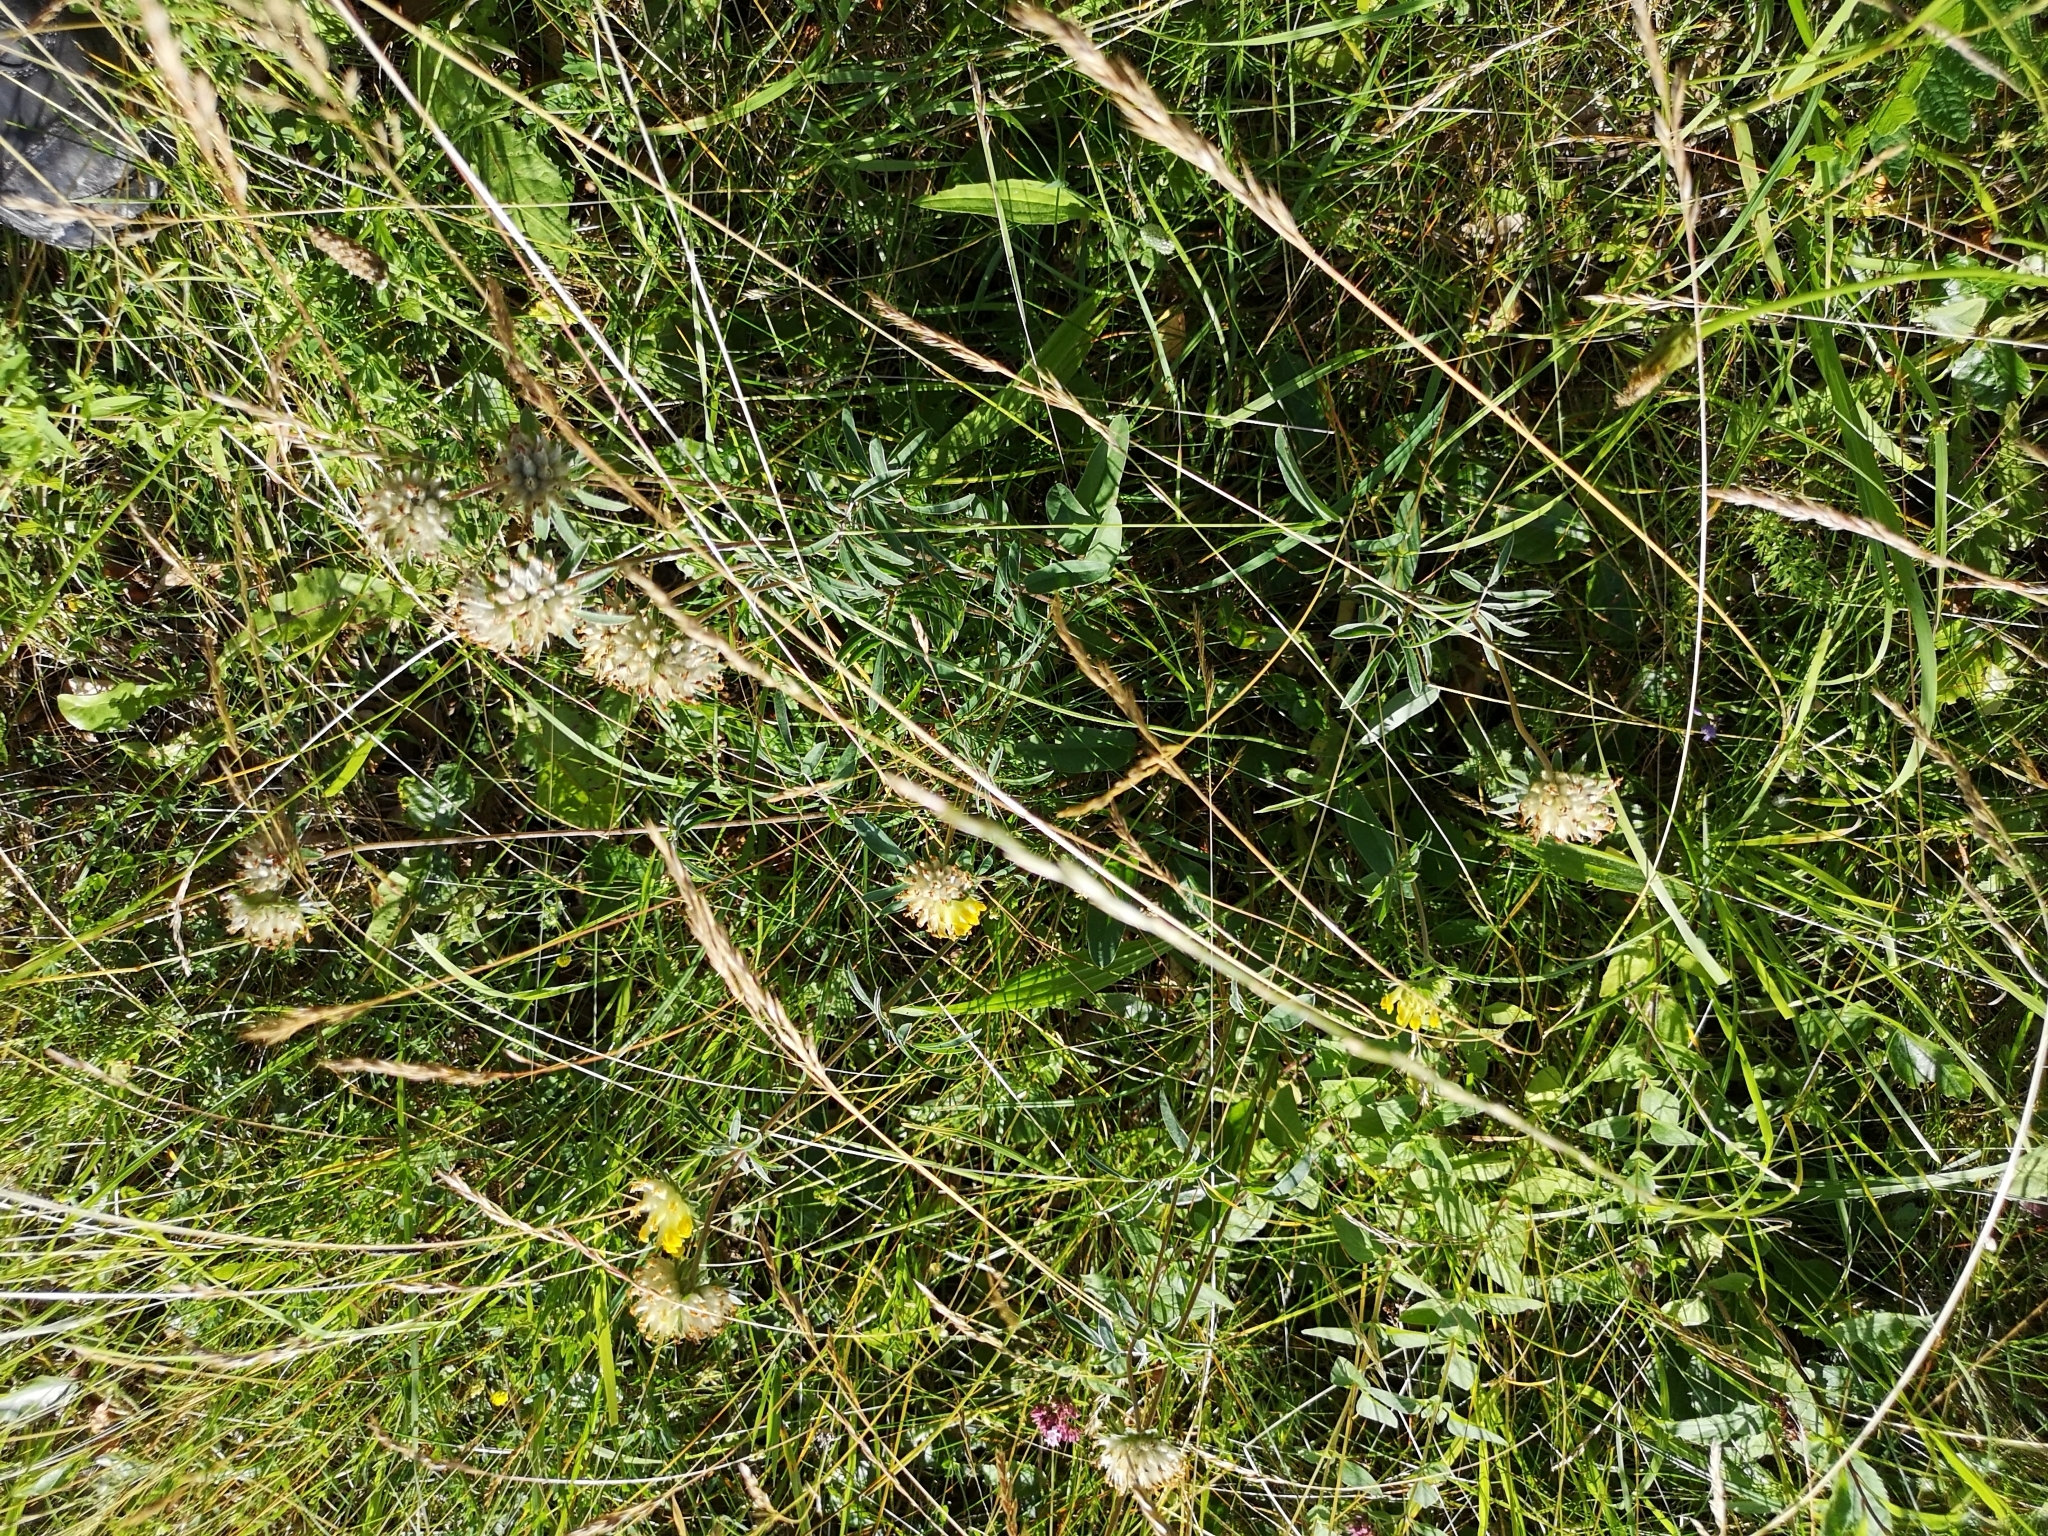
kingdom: Plantae
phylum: Tracheophyta
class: Magnoliopsida
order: Fabales
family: Fabaceae
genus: Anthyllis
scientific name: Anthyllis vulneraria
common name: Kidney vetch
